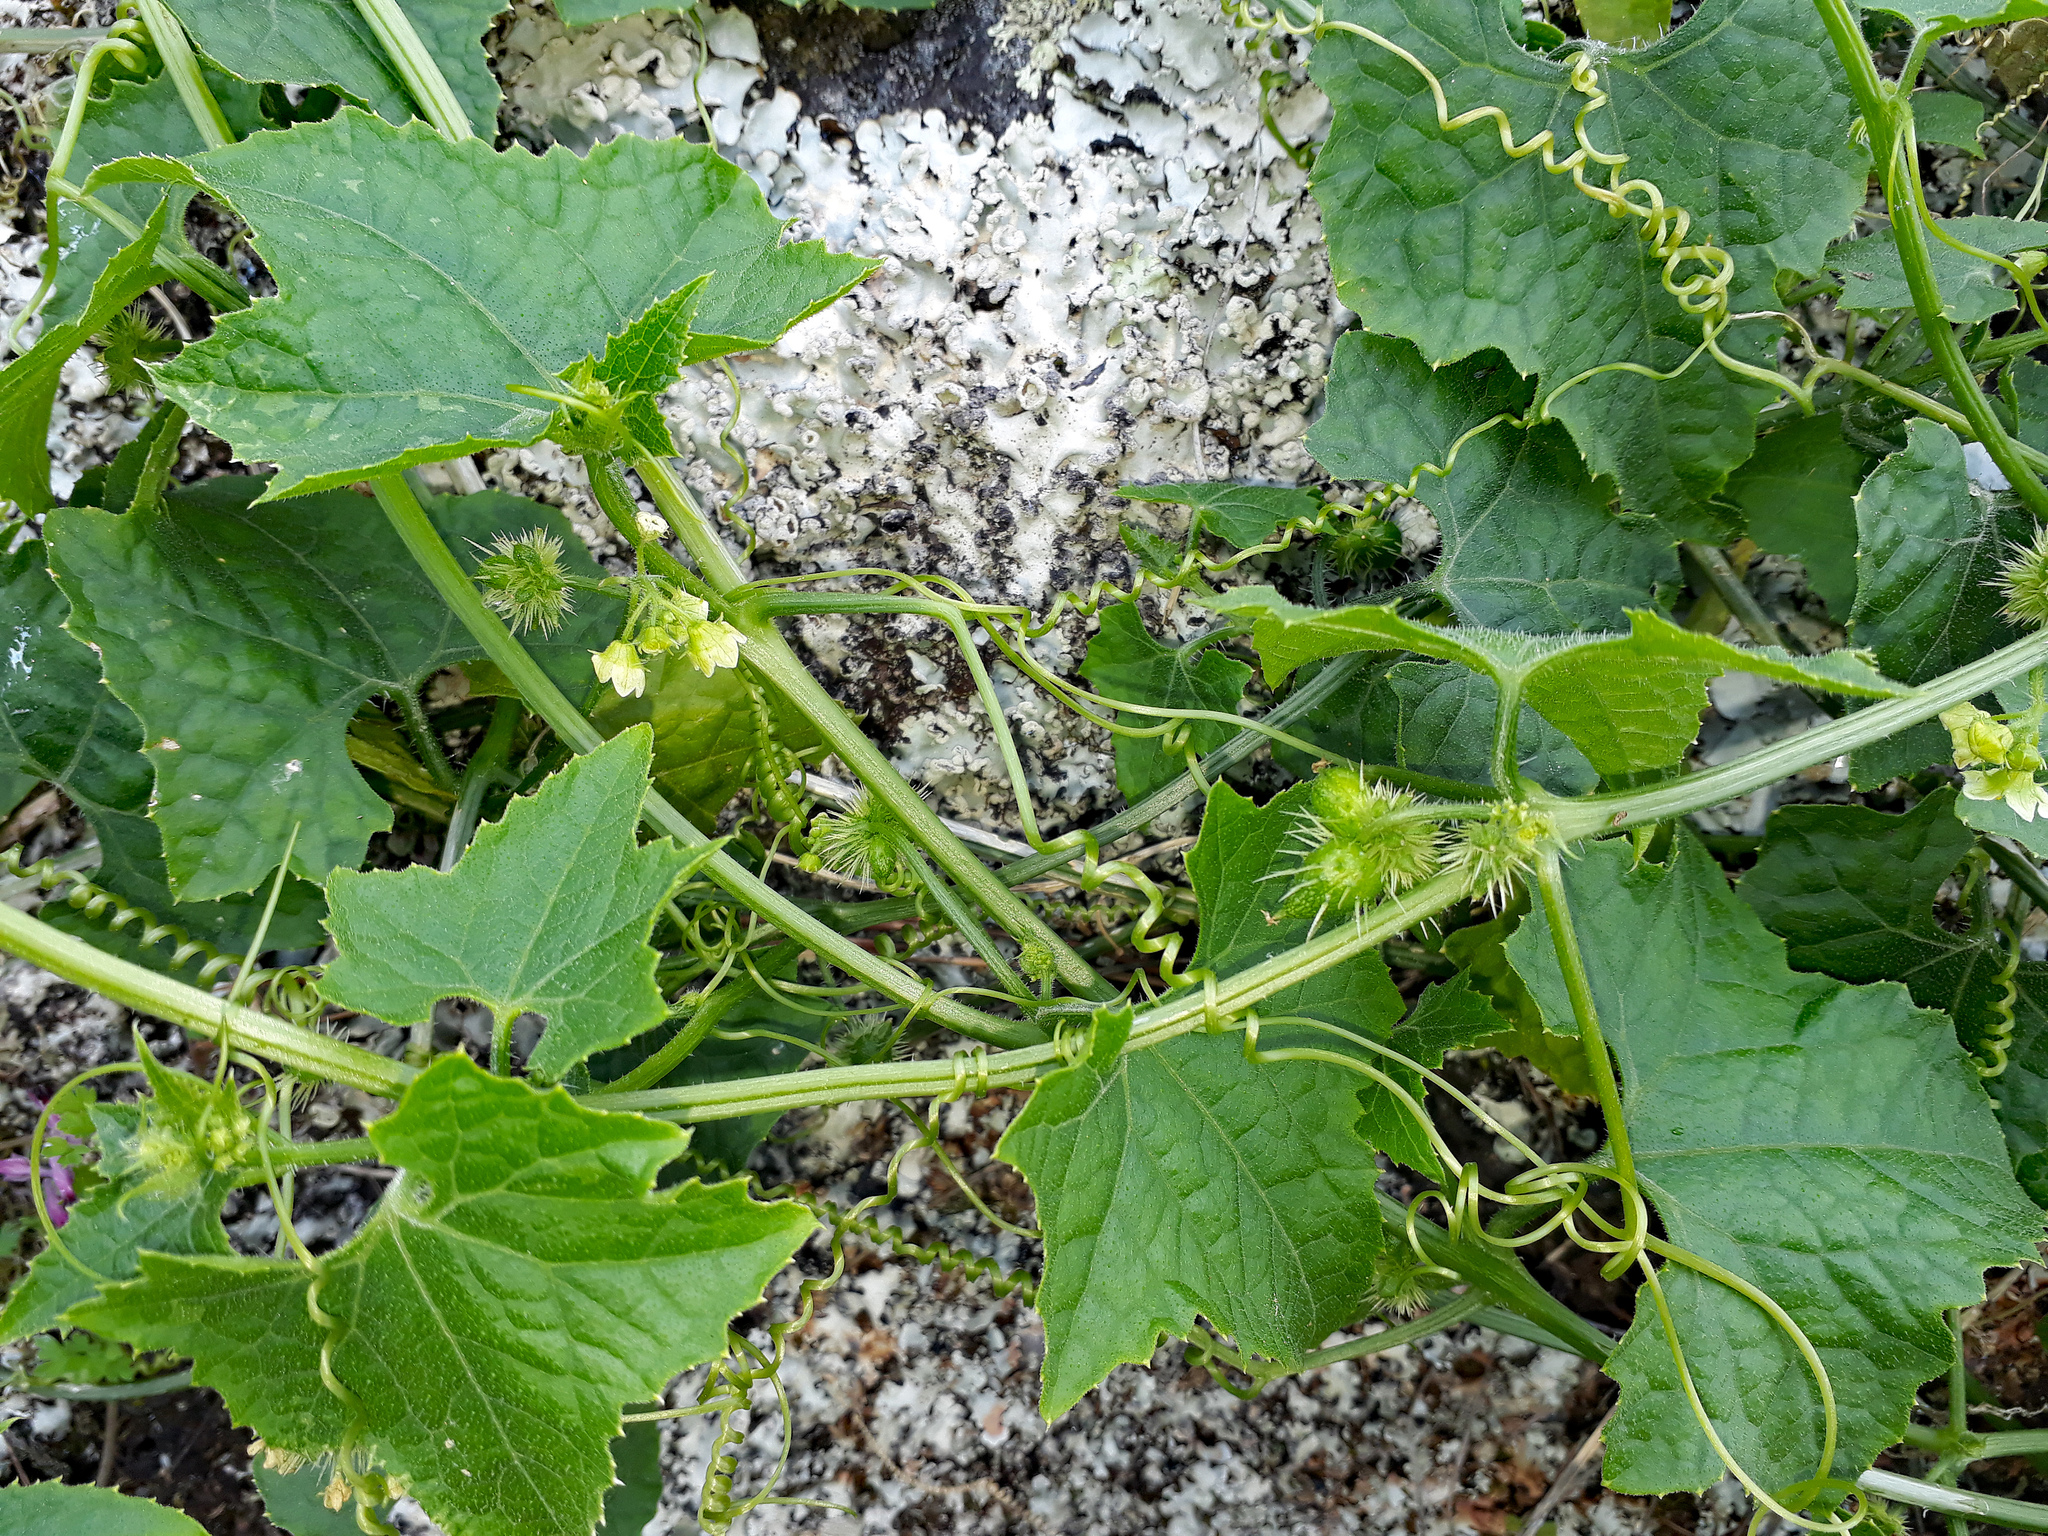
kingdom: Plantae
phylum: Tracheophyta
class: Magnoliopsida
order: Cucurbitales
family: Cucurbitaceae
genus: Sicyos
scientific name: Sicyos australis
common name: Angle-cucumber
